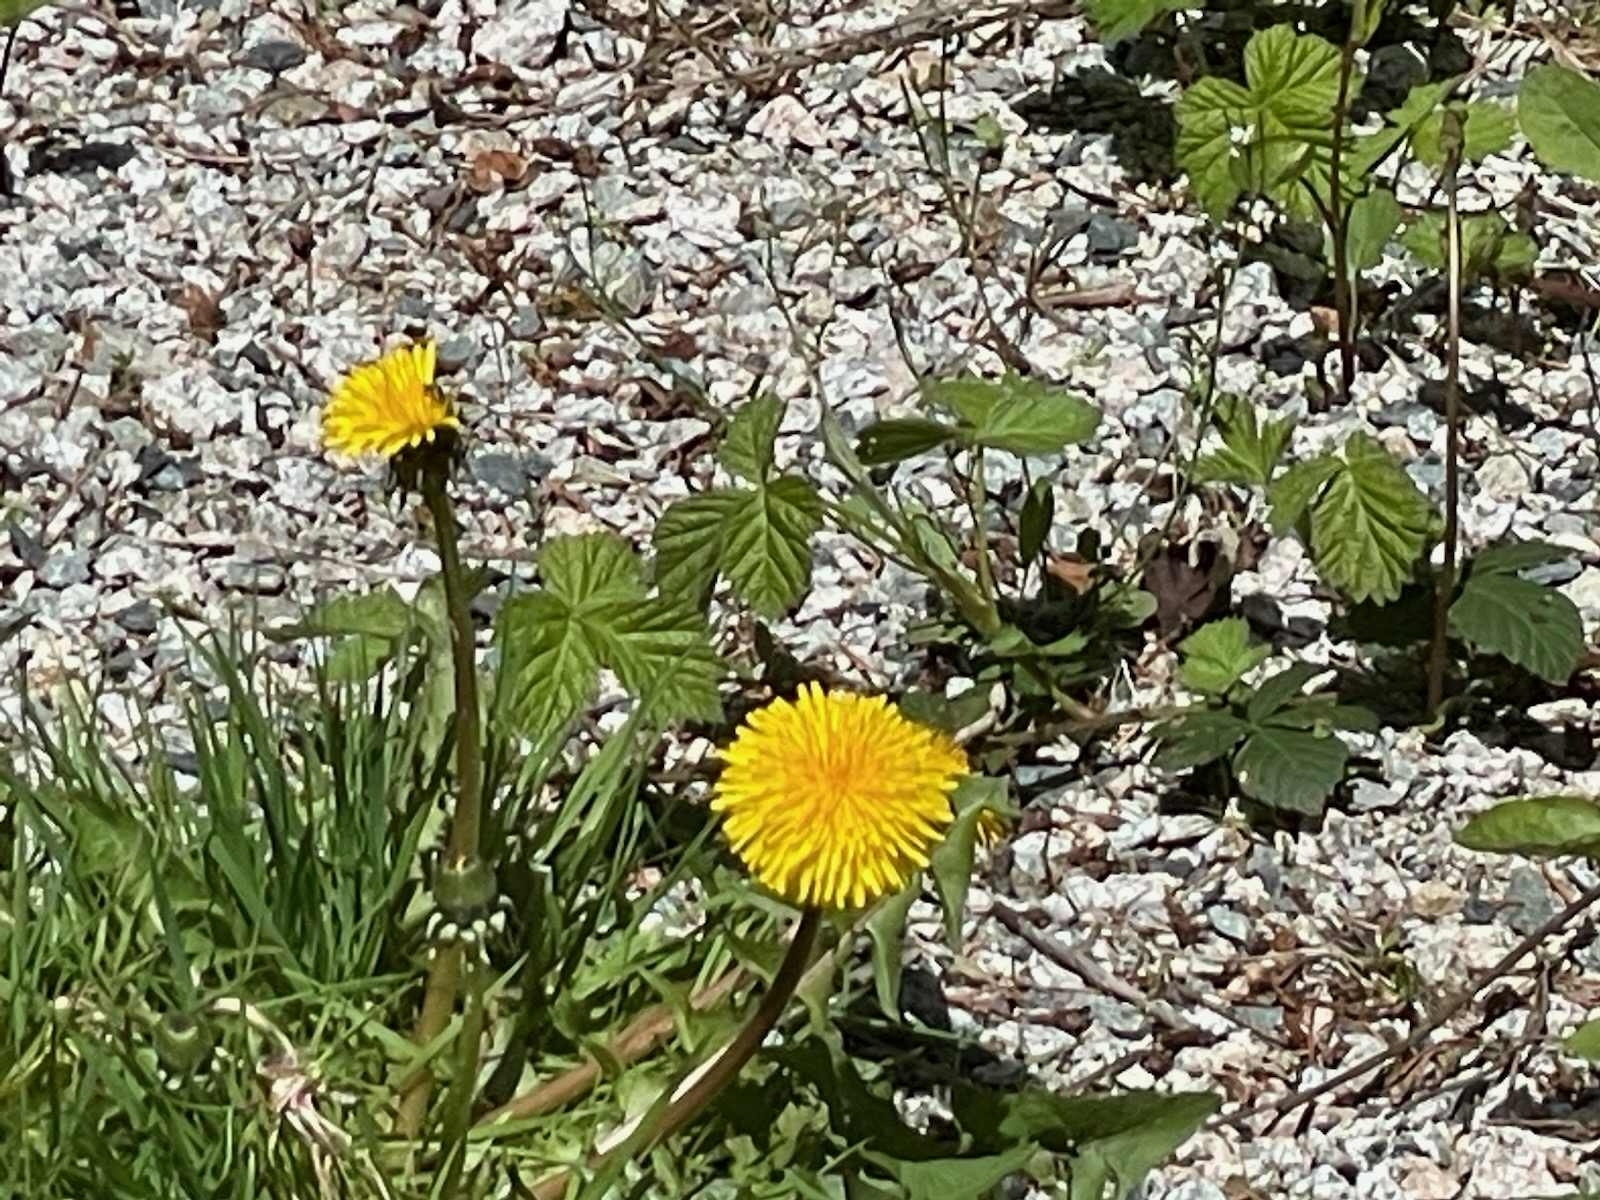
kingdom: Plantae
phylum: Tracheophyta
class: Magnoliopsida
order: Asterales
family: Asteraceae
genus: Taraxacum
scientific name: Taraxacum officinale
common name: Common dandelion
